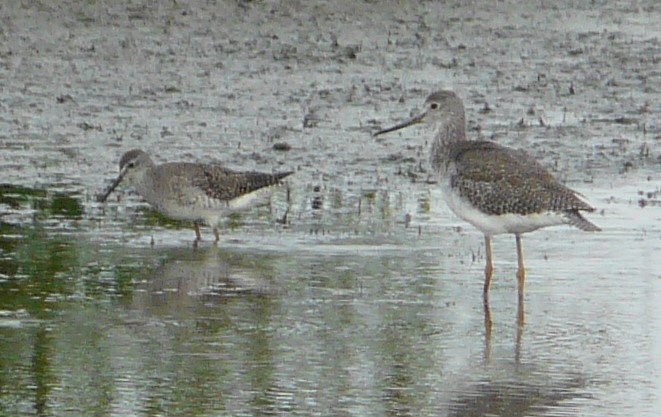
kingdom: Animalia
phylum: Chordata
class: Aves
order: Charadriiformes
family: Scolopacidae
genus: Tringa
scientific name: Tringa melanoleuca
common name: Greater yellowlegs
